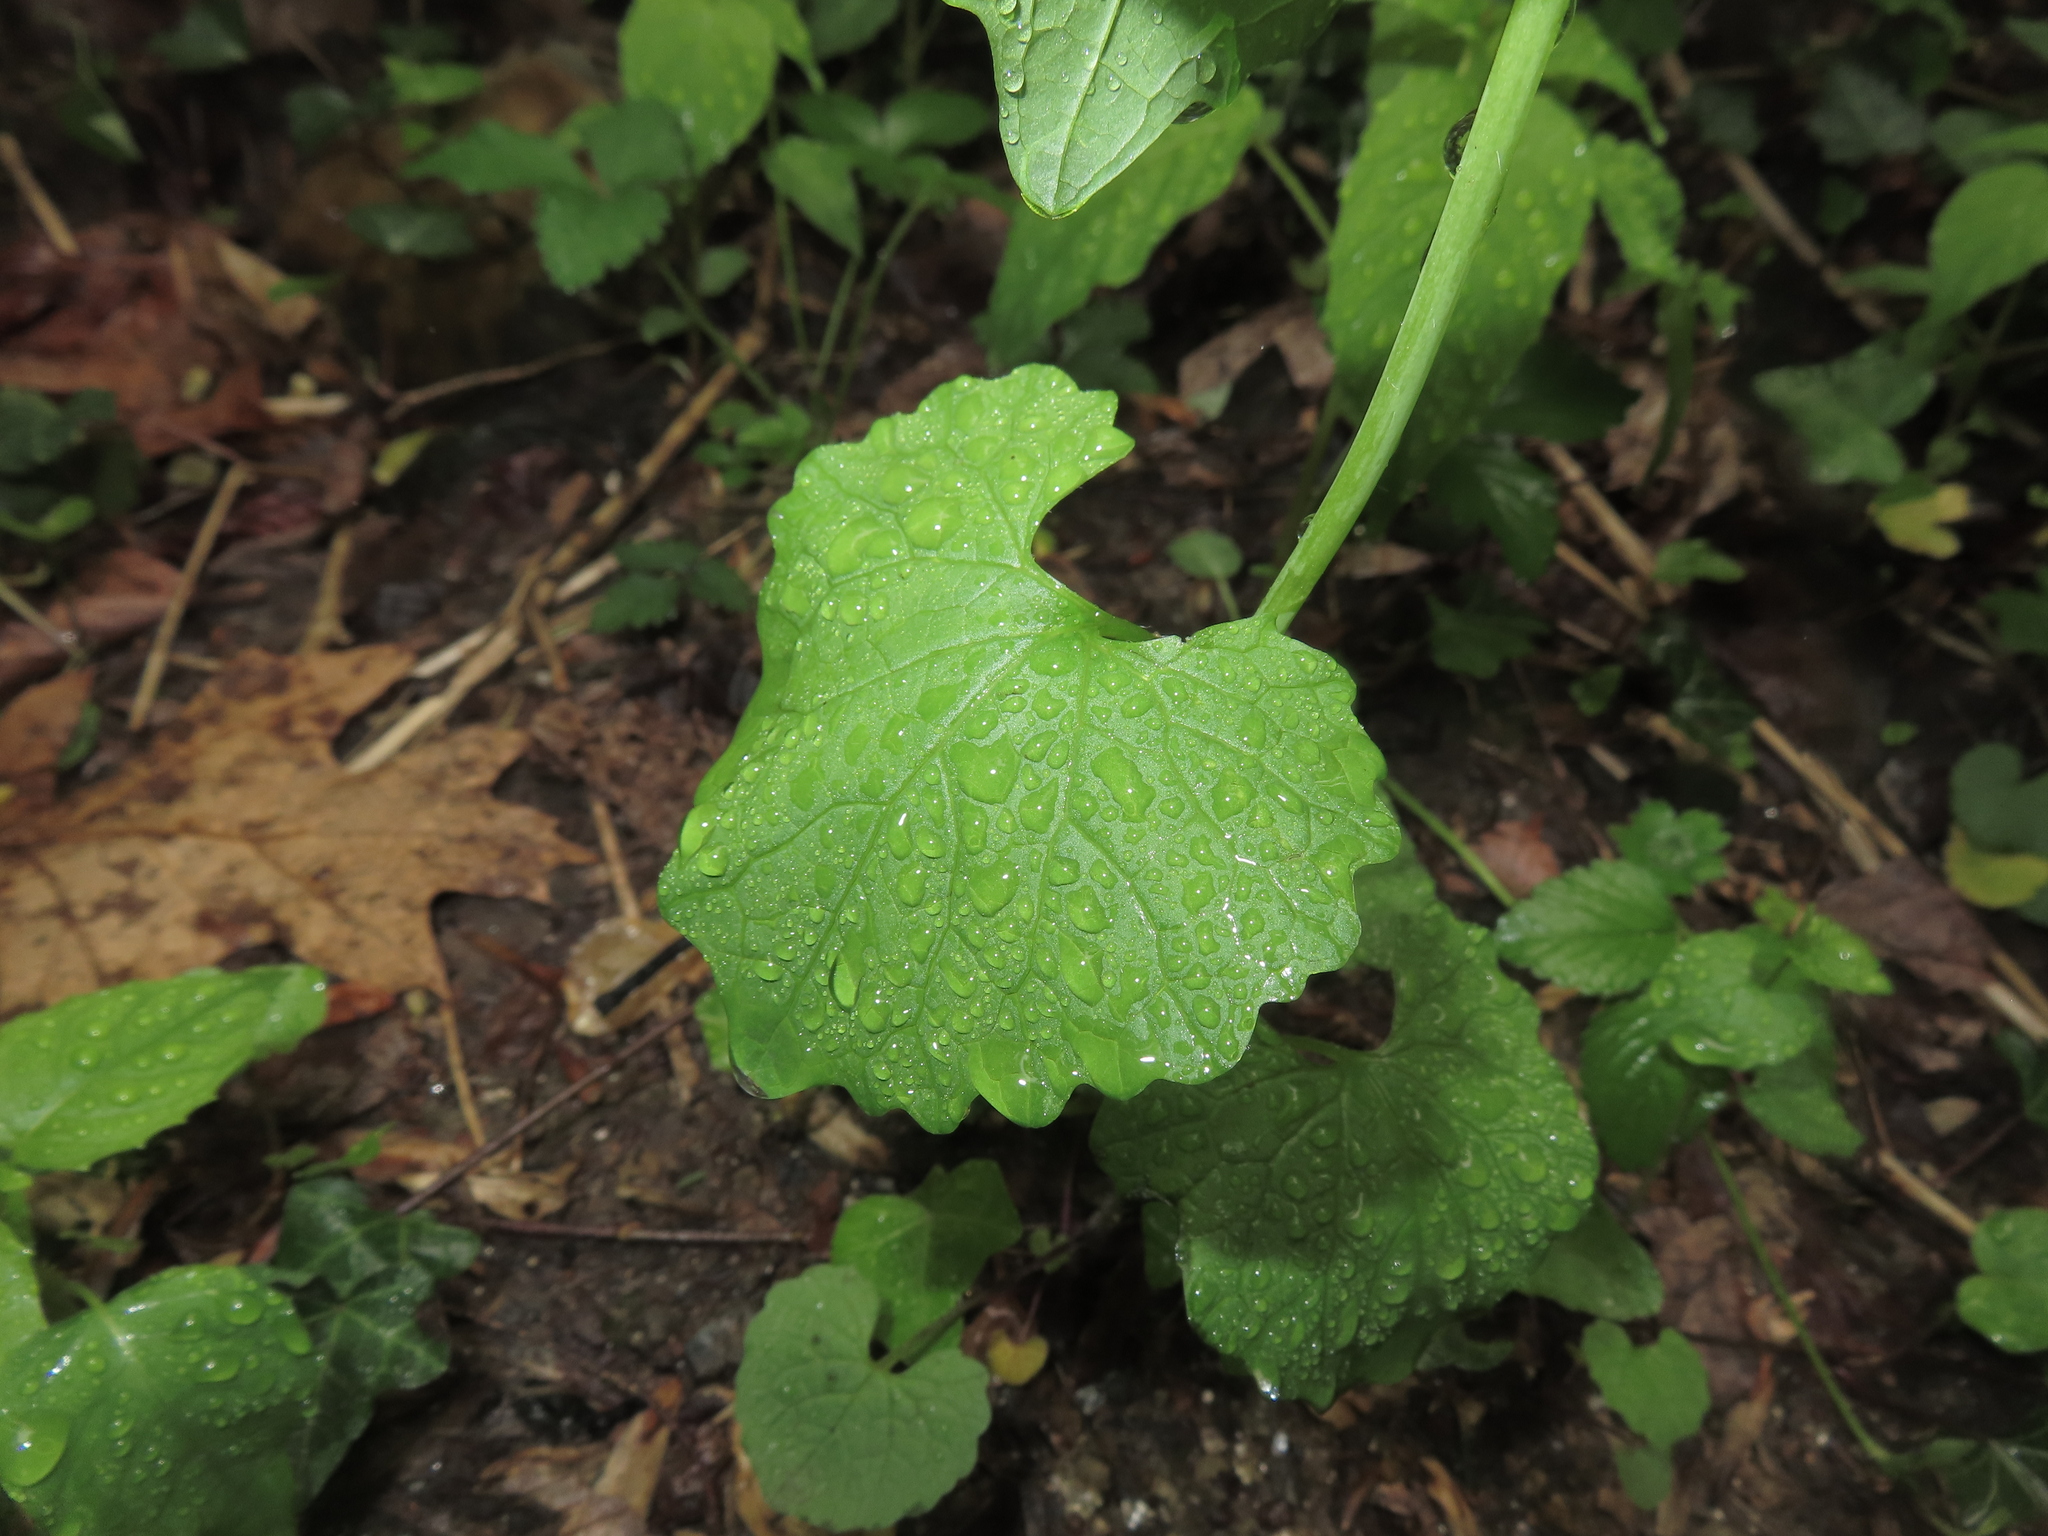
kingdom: Plantae
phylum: Tracheophyta
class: Magnoliopsida
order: Brassicales
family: Brassicaceae
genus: Alliaria
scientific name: Alliaria petiolata
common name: Garlic mustard
